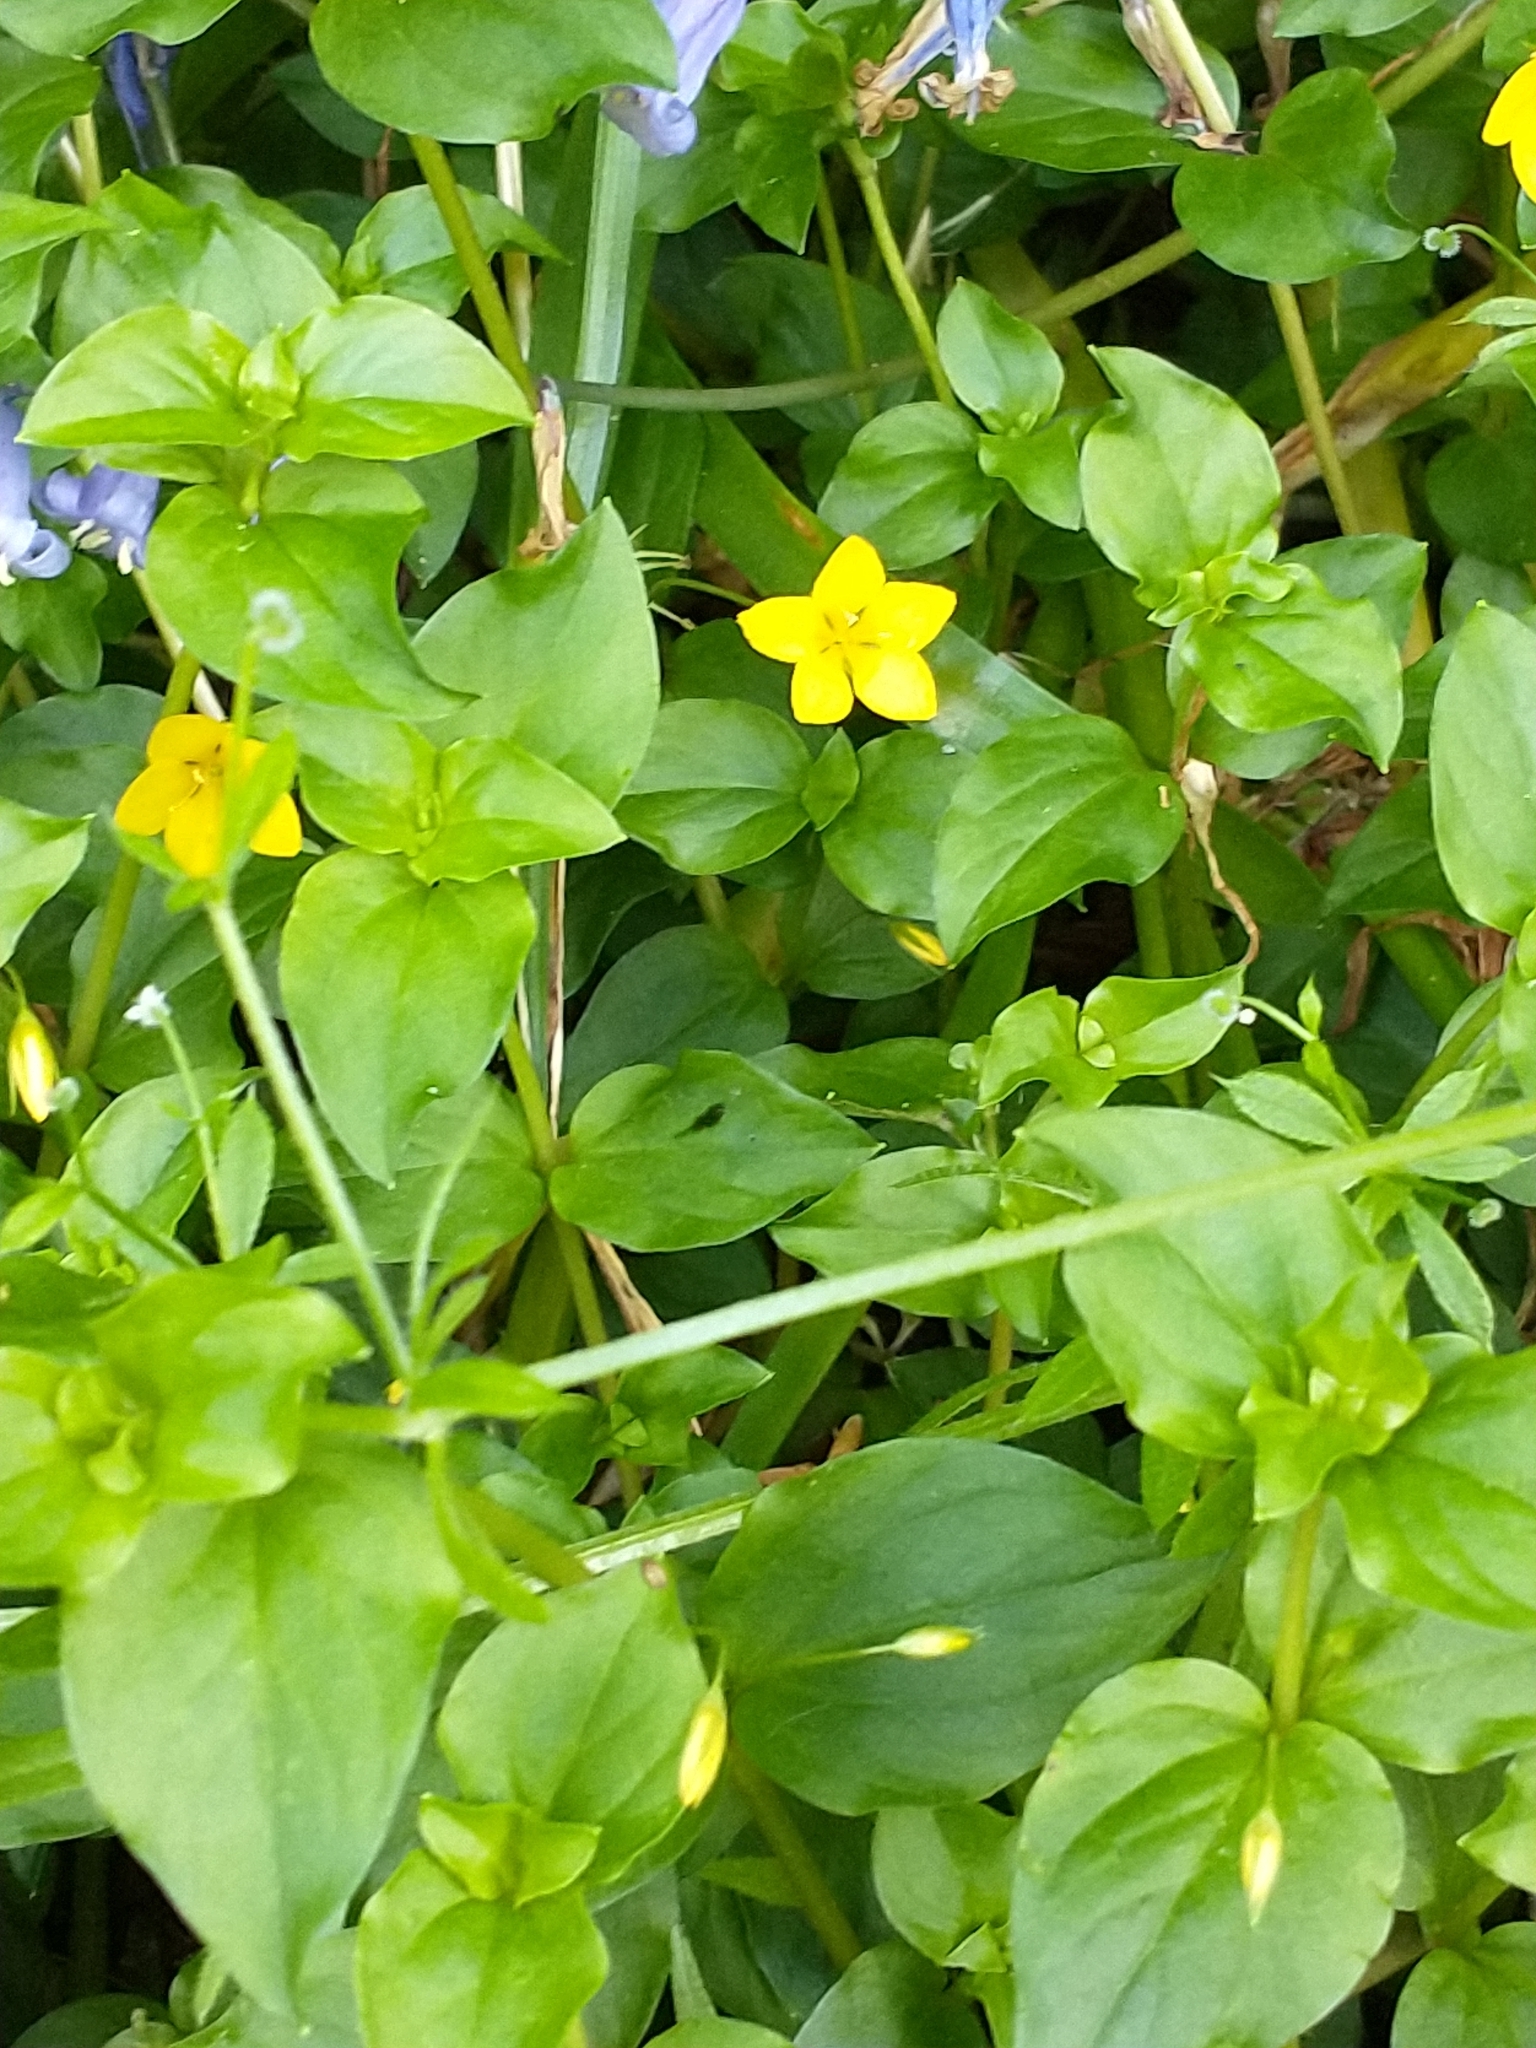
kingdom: Plantae
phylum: Tracheophyta
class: Magnoliopsida
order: Ericales
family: Primulaceae
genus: Lysimachia
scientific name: Lysimachia nemorum
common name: Yellow pimpernel
